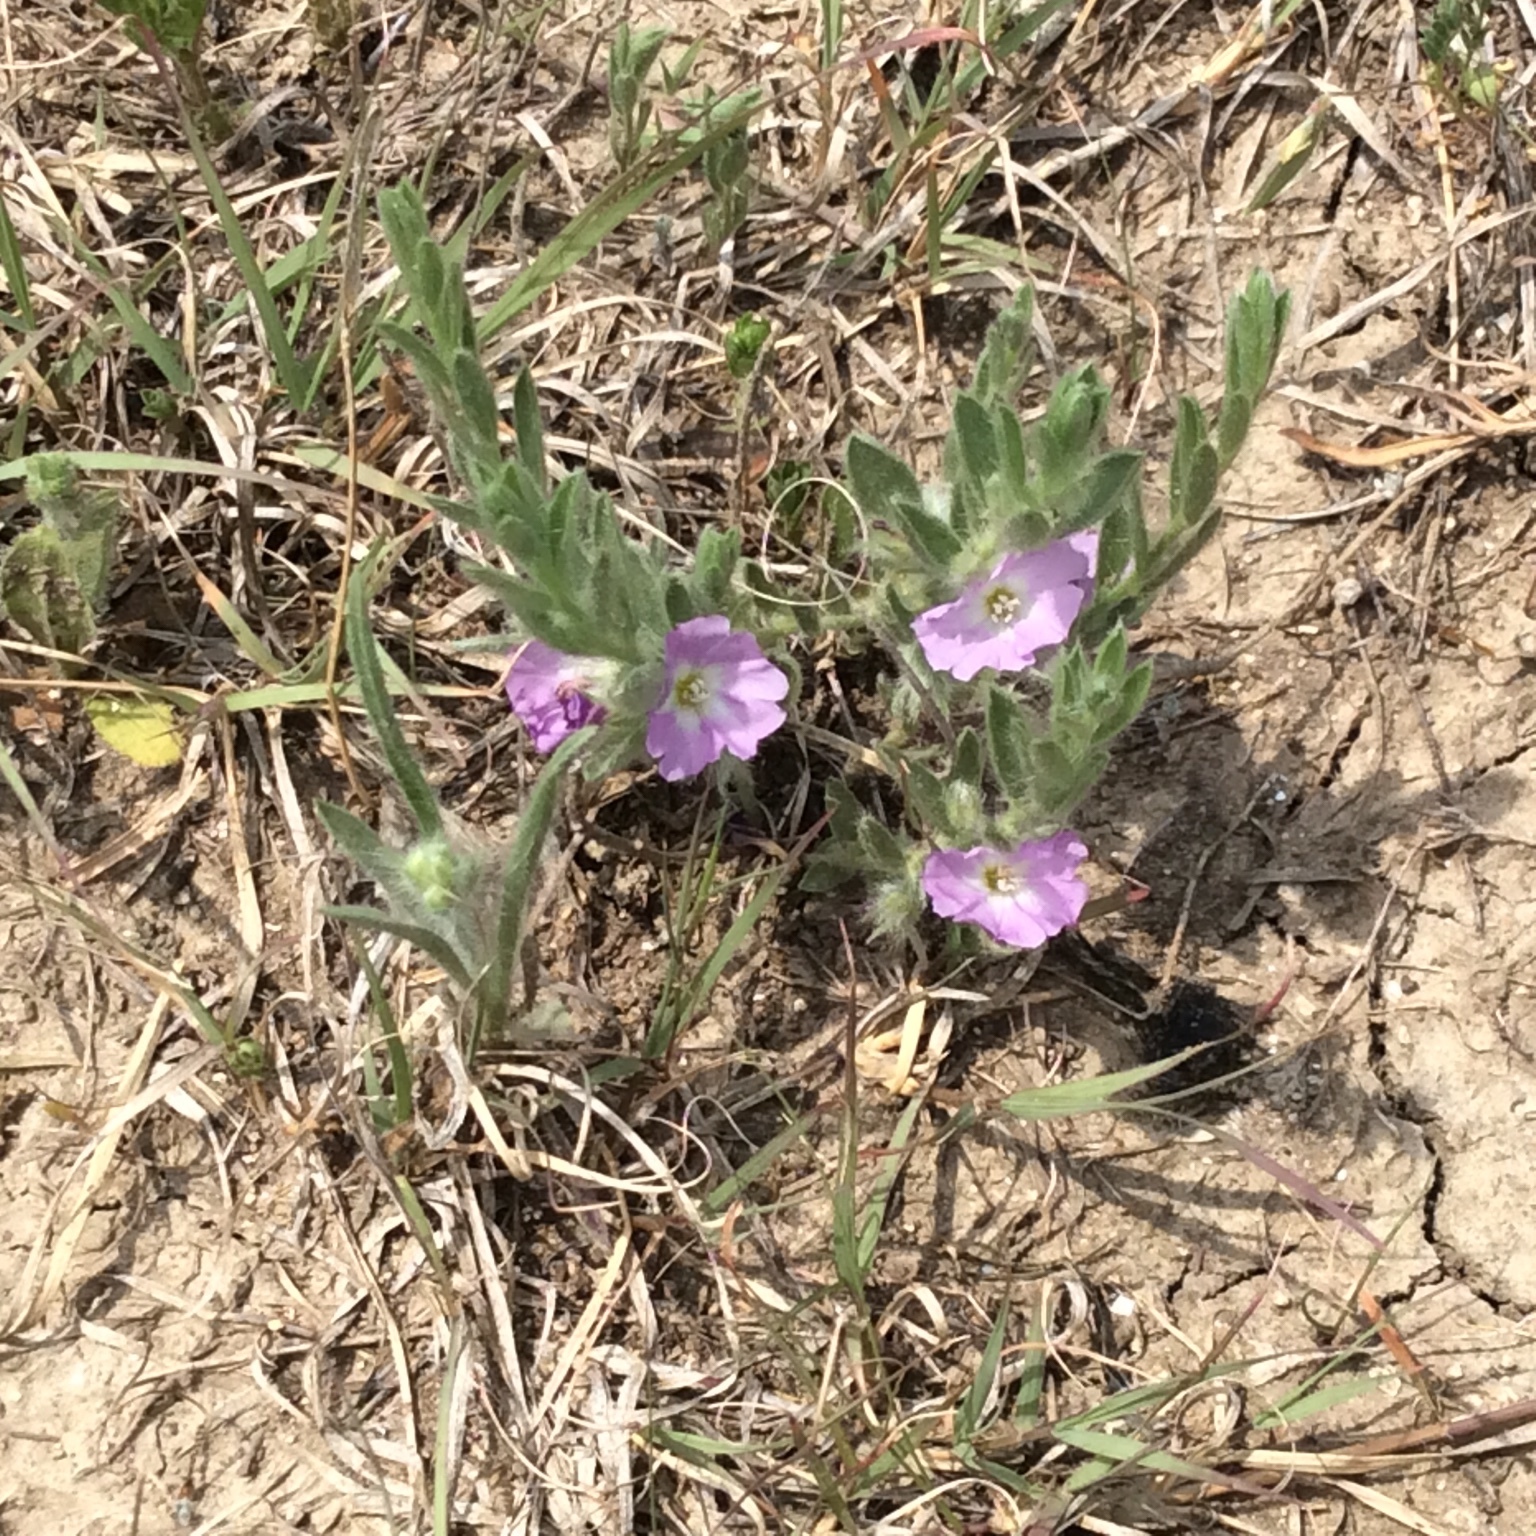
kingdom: Plantae
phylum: Tracheophyta
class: Magnoliopsida
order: Solanales
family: Convolvulaceae
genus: Evolvulus
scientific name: Evolvulus nuttallianus
